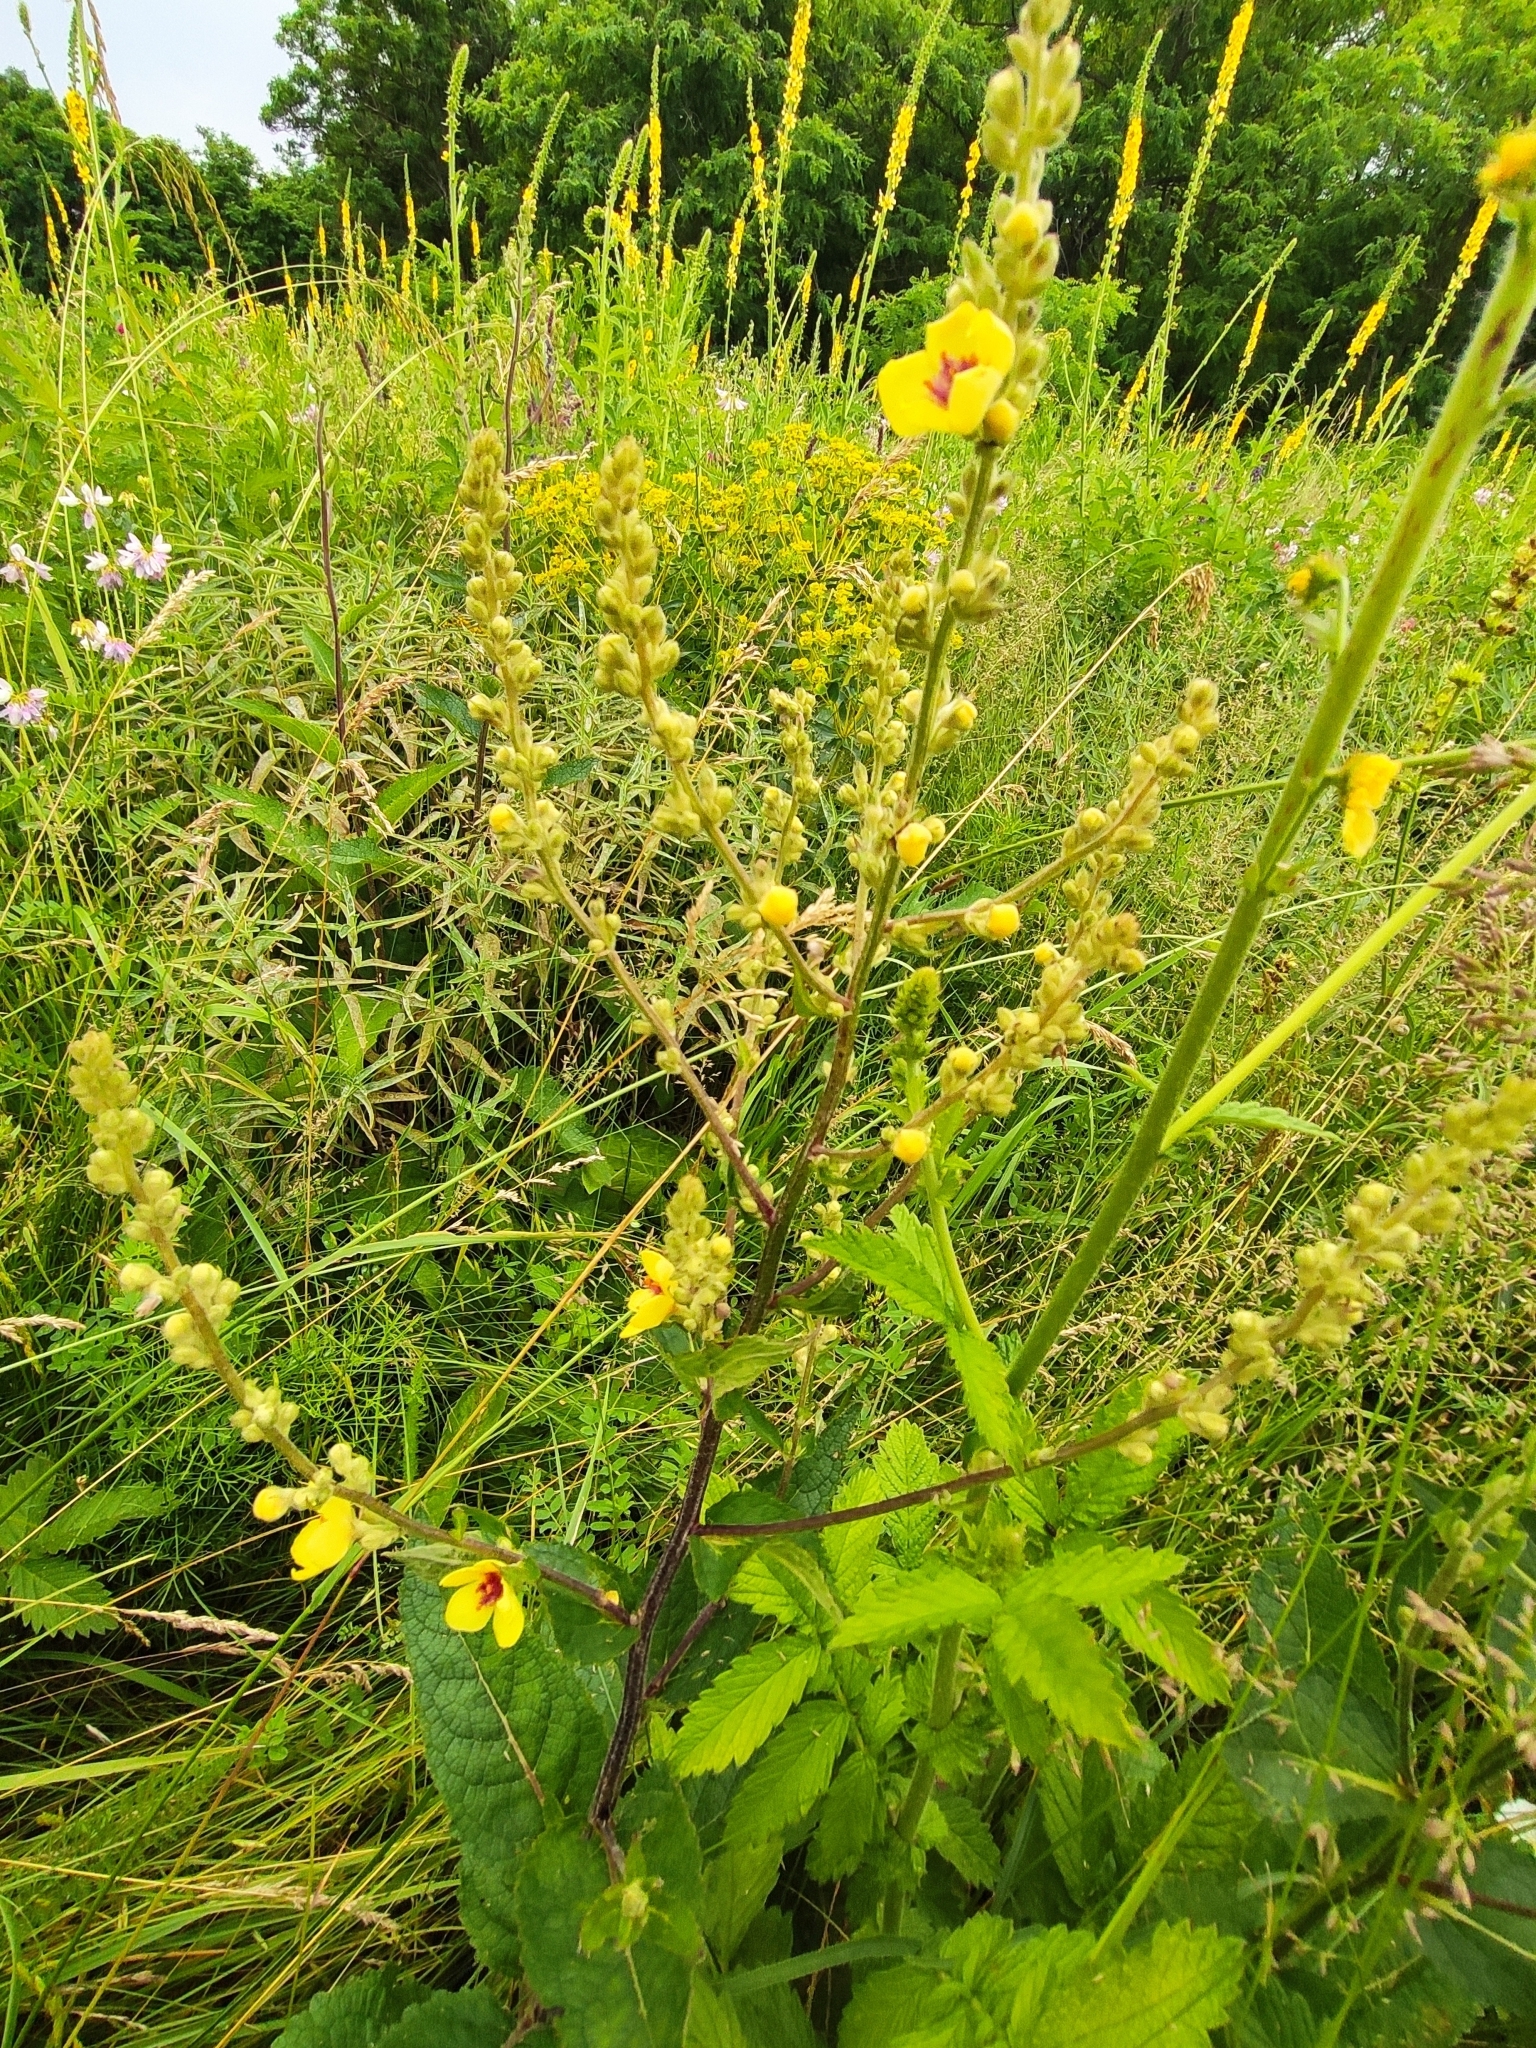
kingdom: Plantae
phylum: Tracheophyta
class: Magnoliopsida
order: Lamiales
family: Scrophulariaceae
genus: Verbascum
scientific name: Verbascum chaixii
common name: Nettle-leaved mullein
